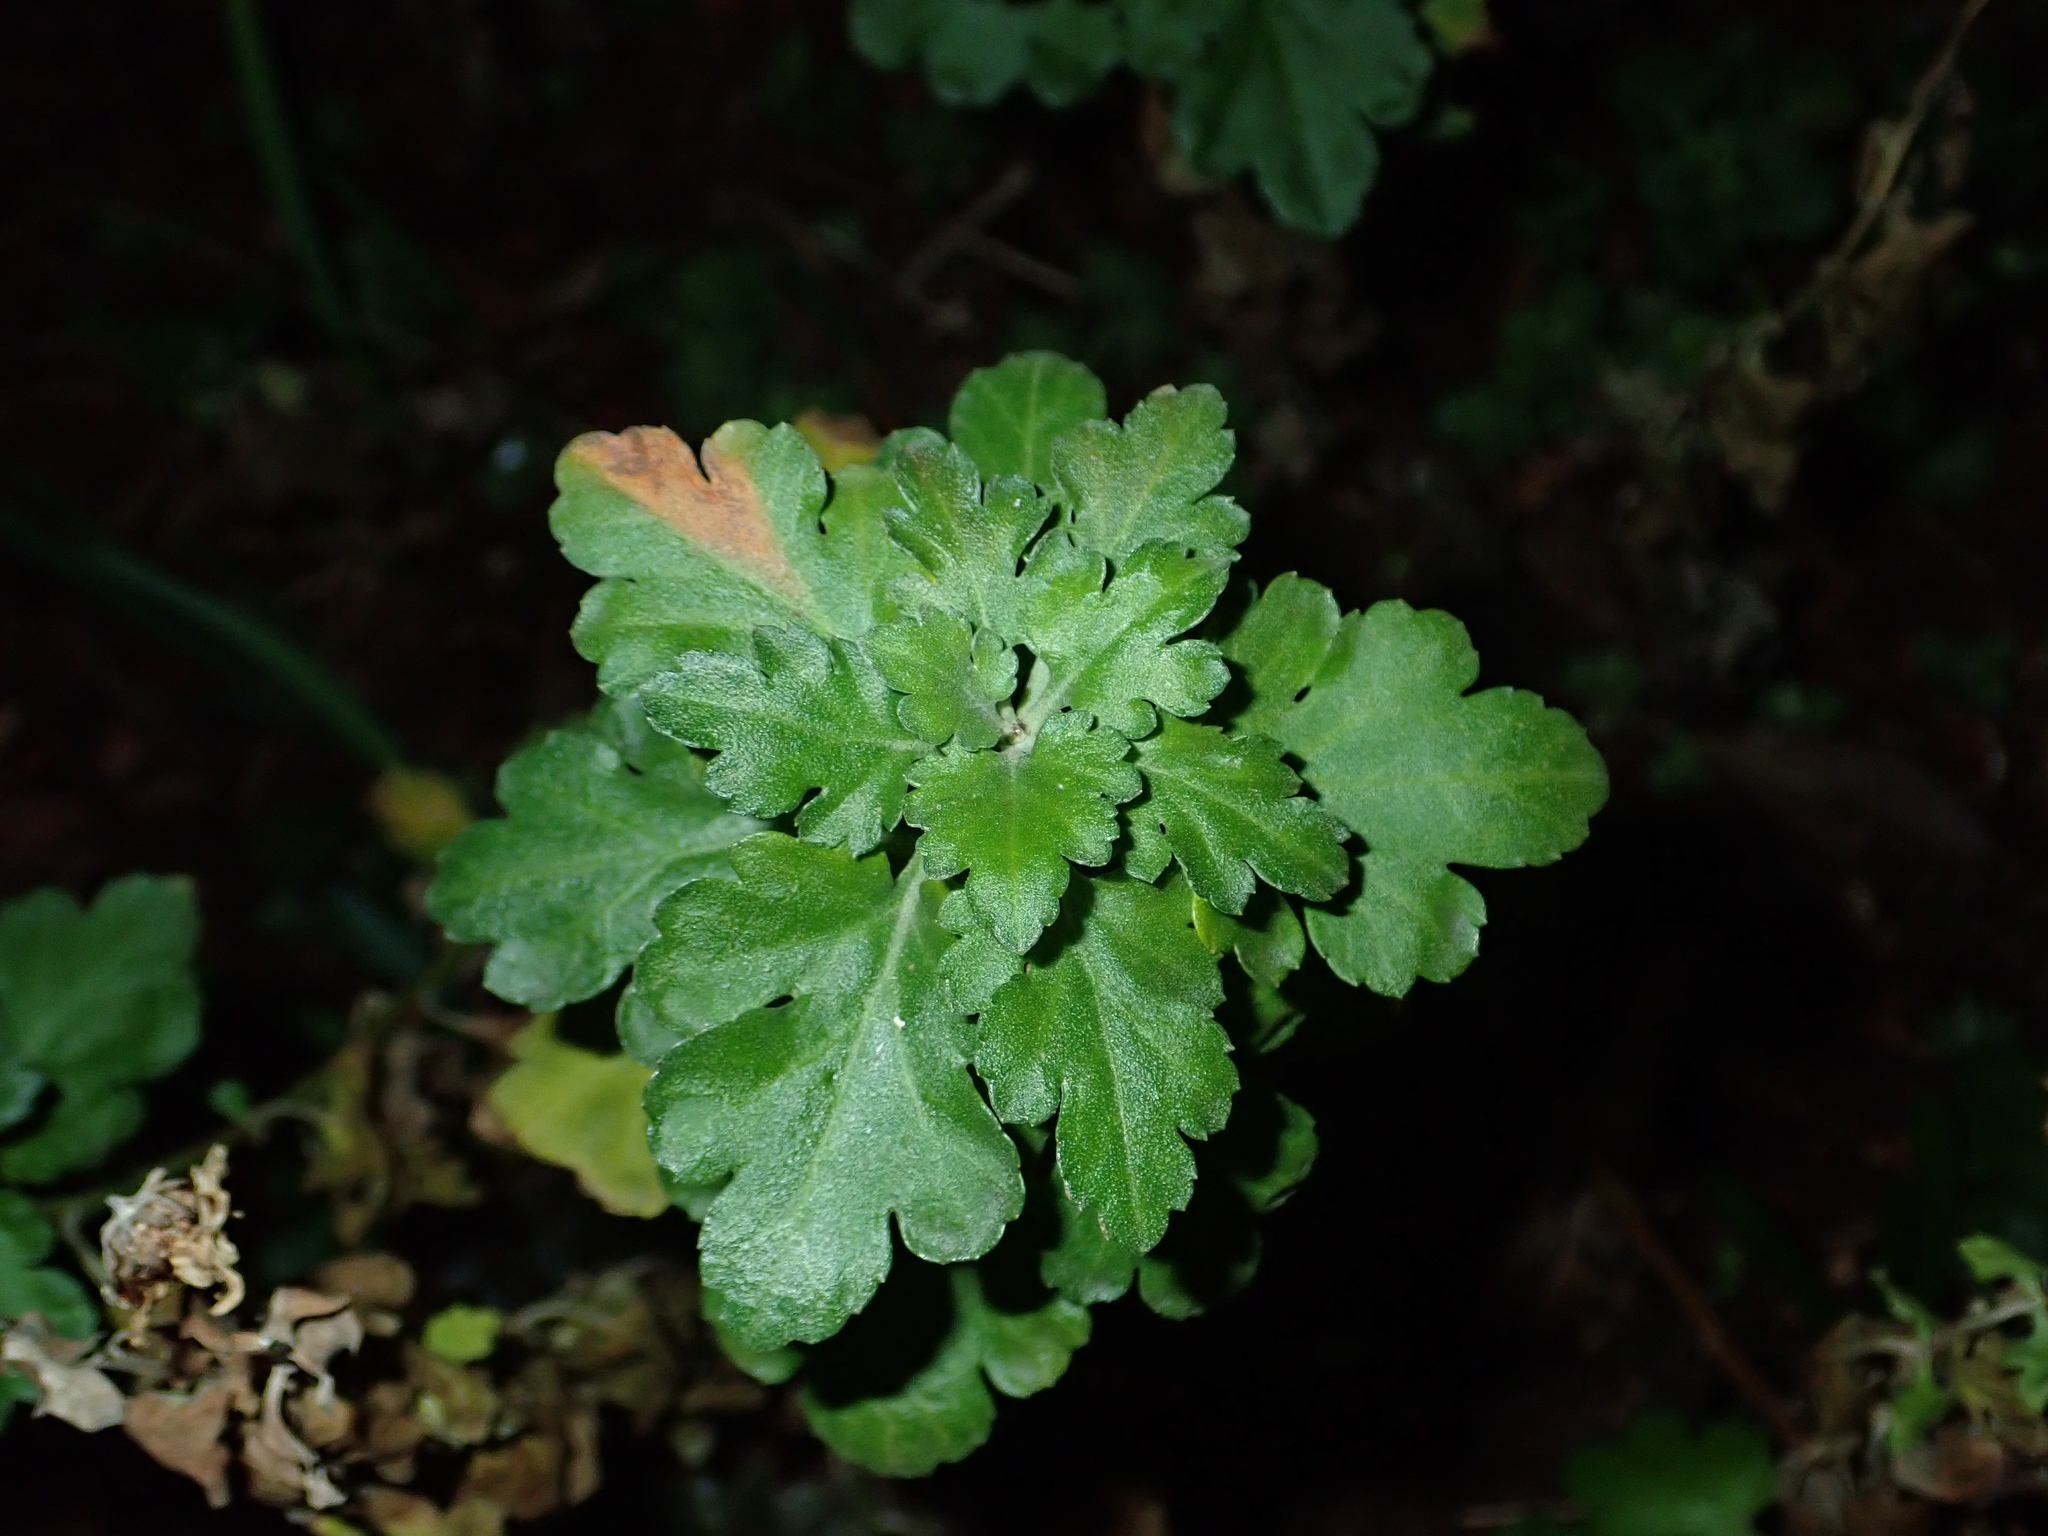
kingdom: Plantae
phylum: Tracheophyta
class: Magnoliopsida
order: Asterales
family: Asteraceae
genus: Tanacetum
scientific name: Tanacetum parthenium
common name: Feverfew
